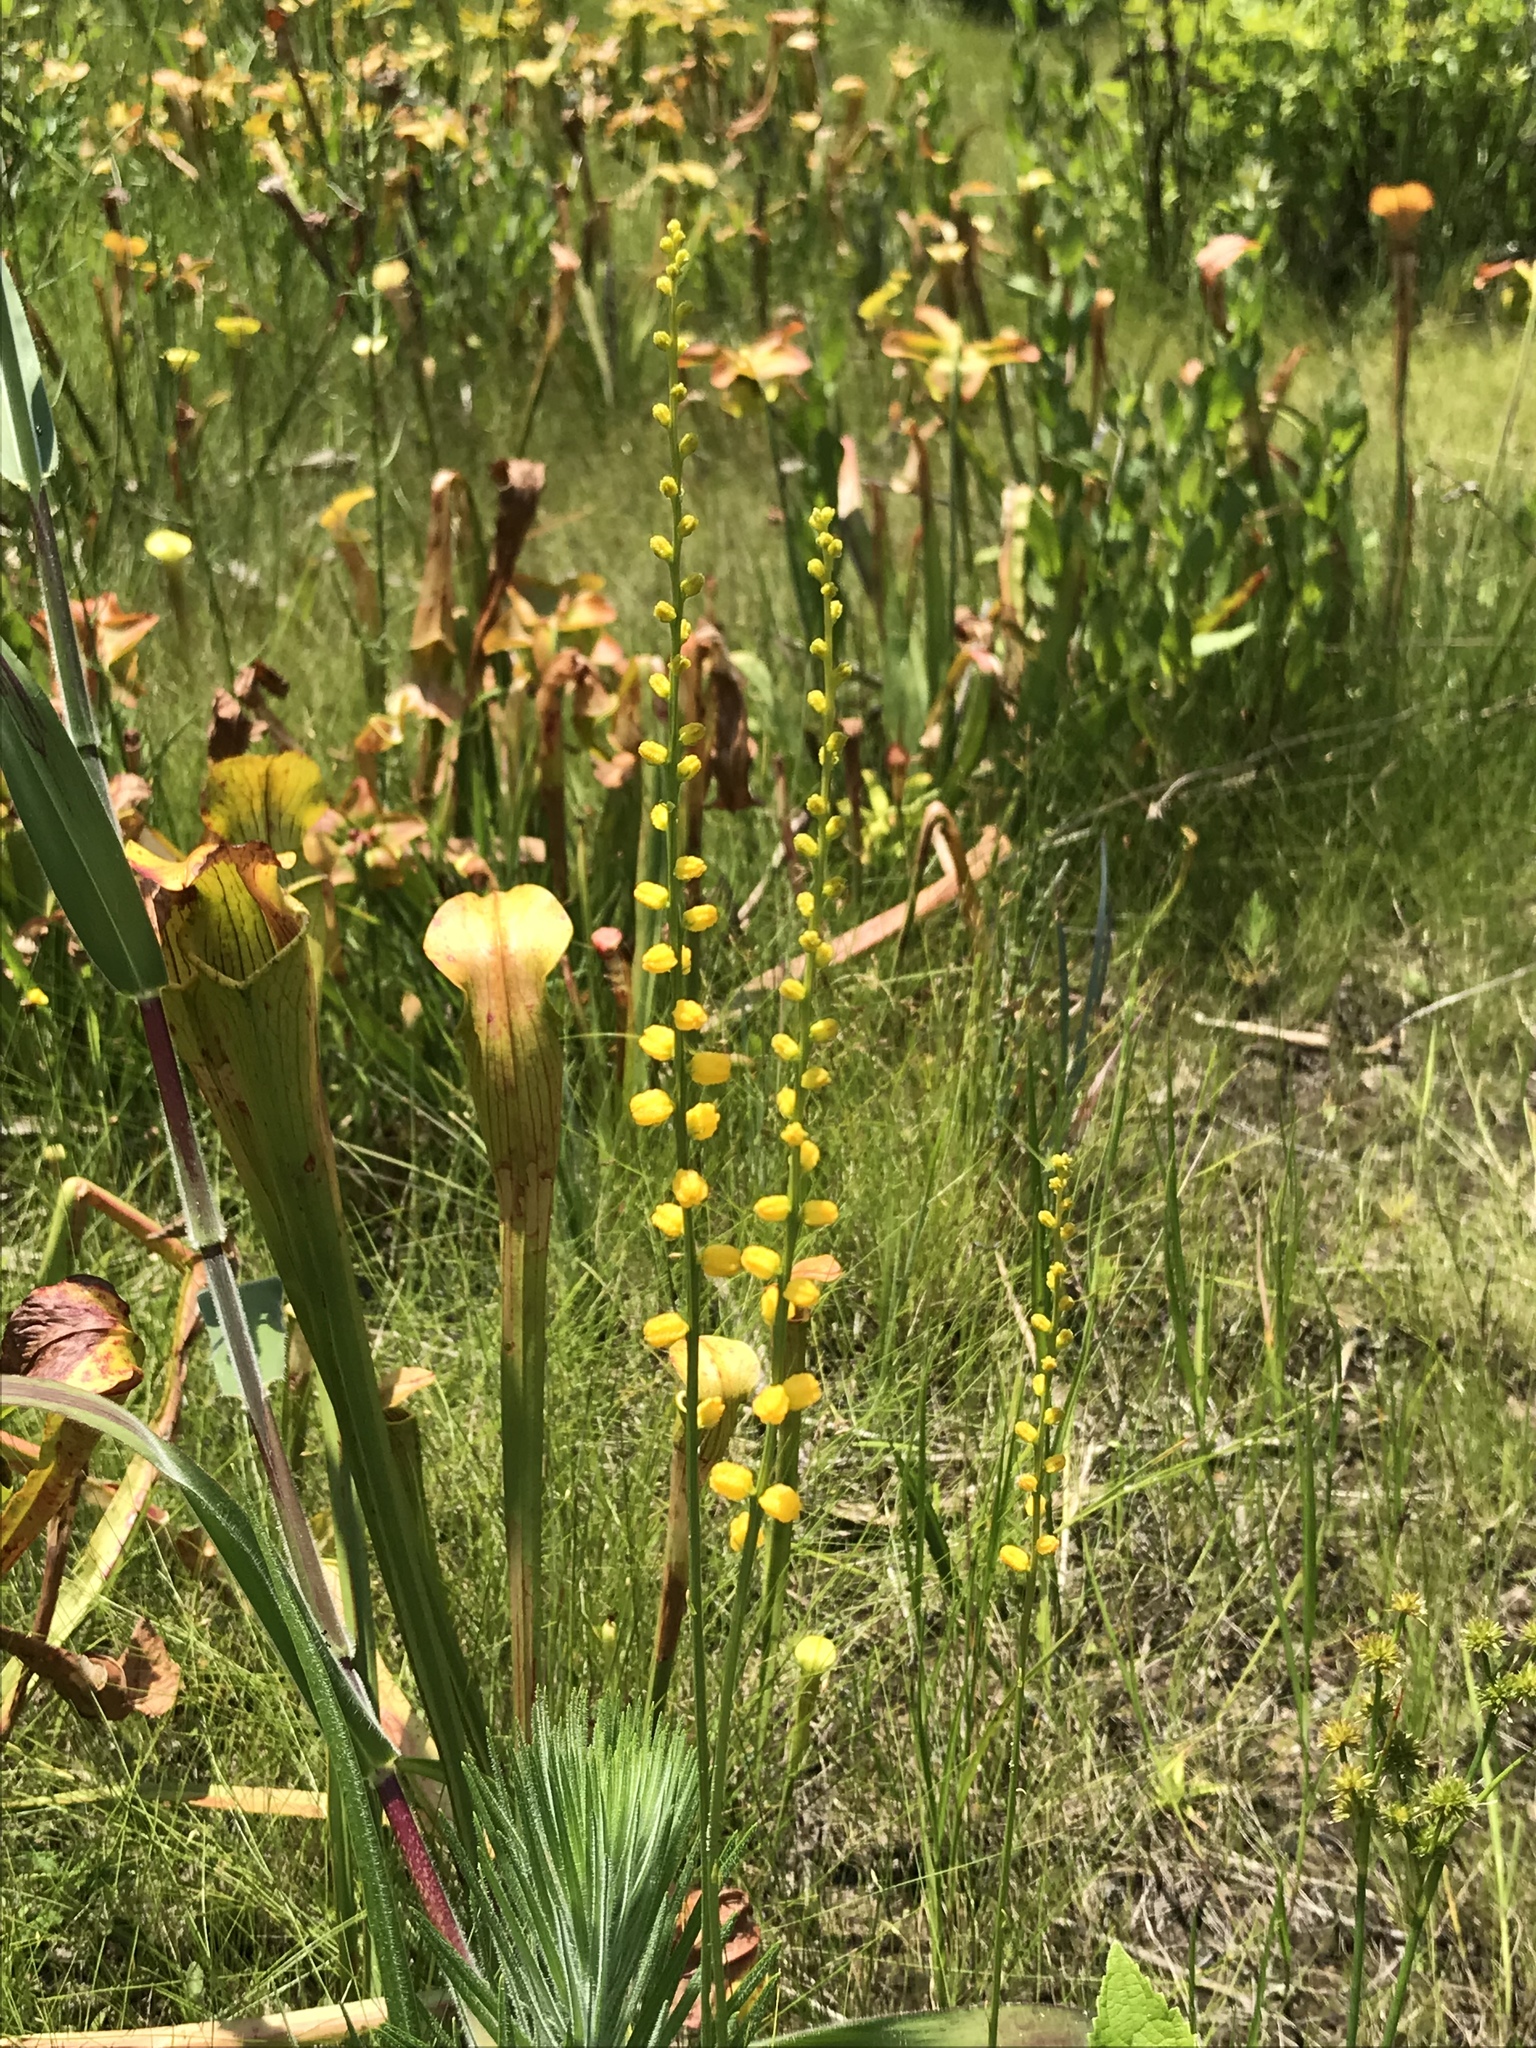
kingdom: Plantae
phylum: Tracheophyta
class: Liliopsida
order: Dioscoreales
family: Nartheciaceae
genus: Aletris
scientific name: Aletris aurea
